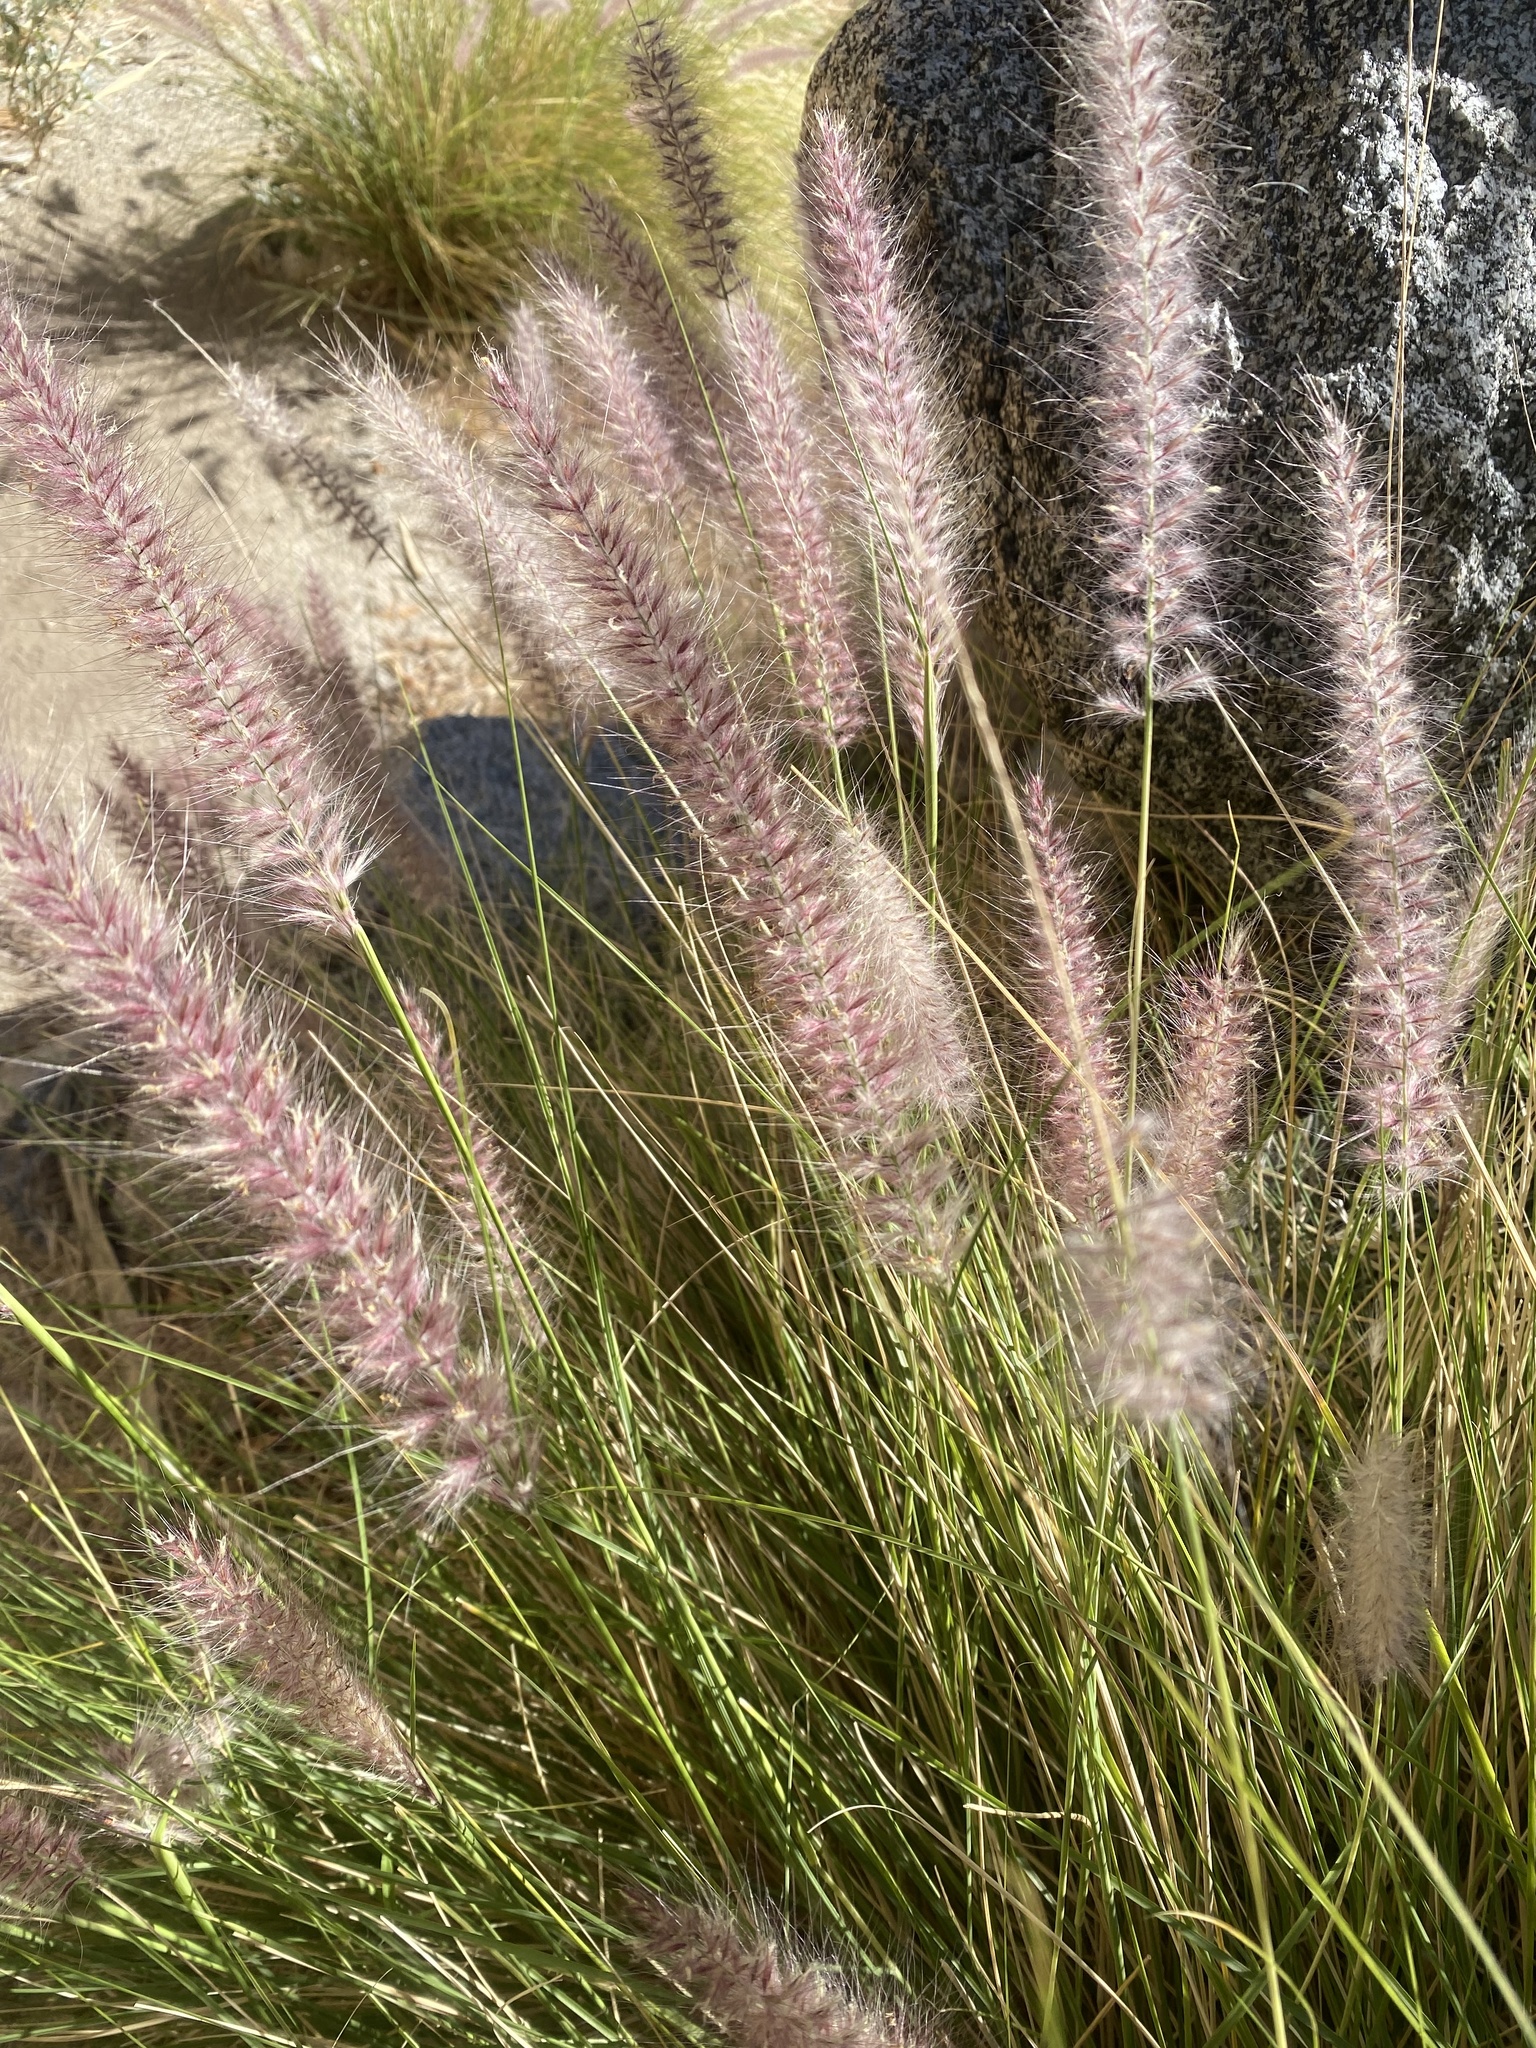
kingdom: Plantae
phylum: Tracheophyta
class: Liliopsida
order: Poales
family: Poaceae
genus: Cenchrus
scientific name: Cenchrus setaceus
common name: Crimson fountaingrass
